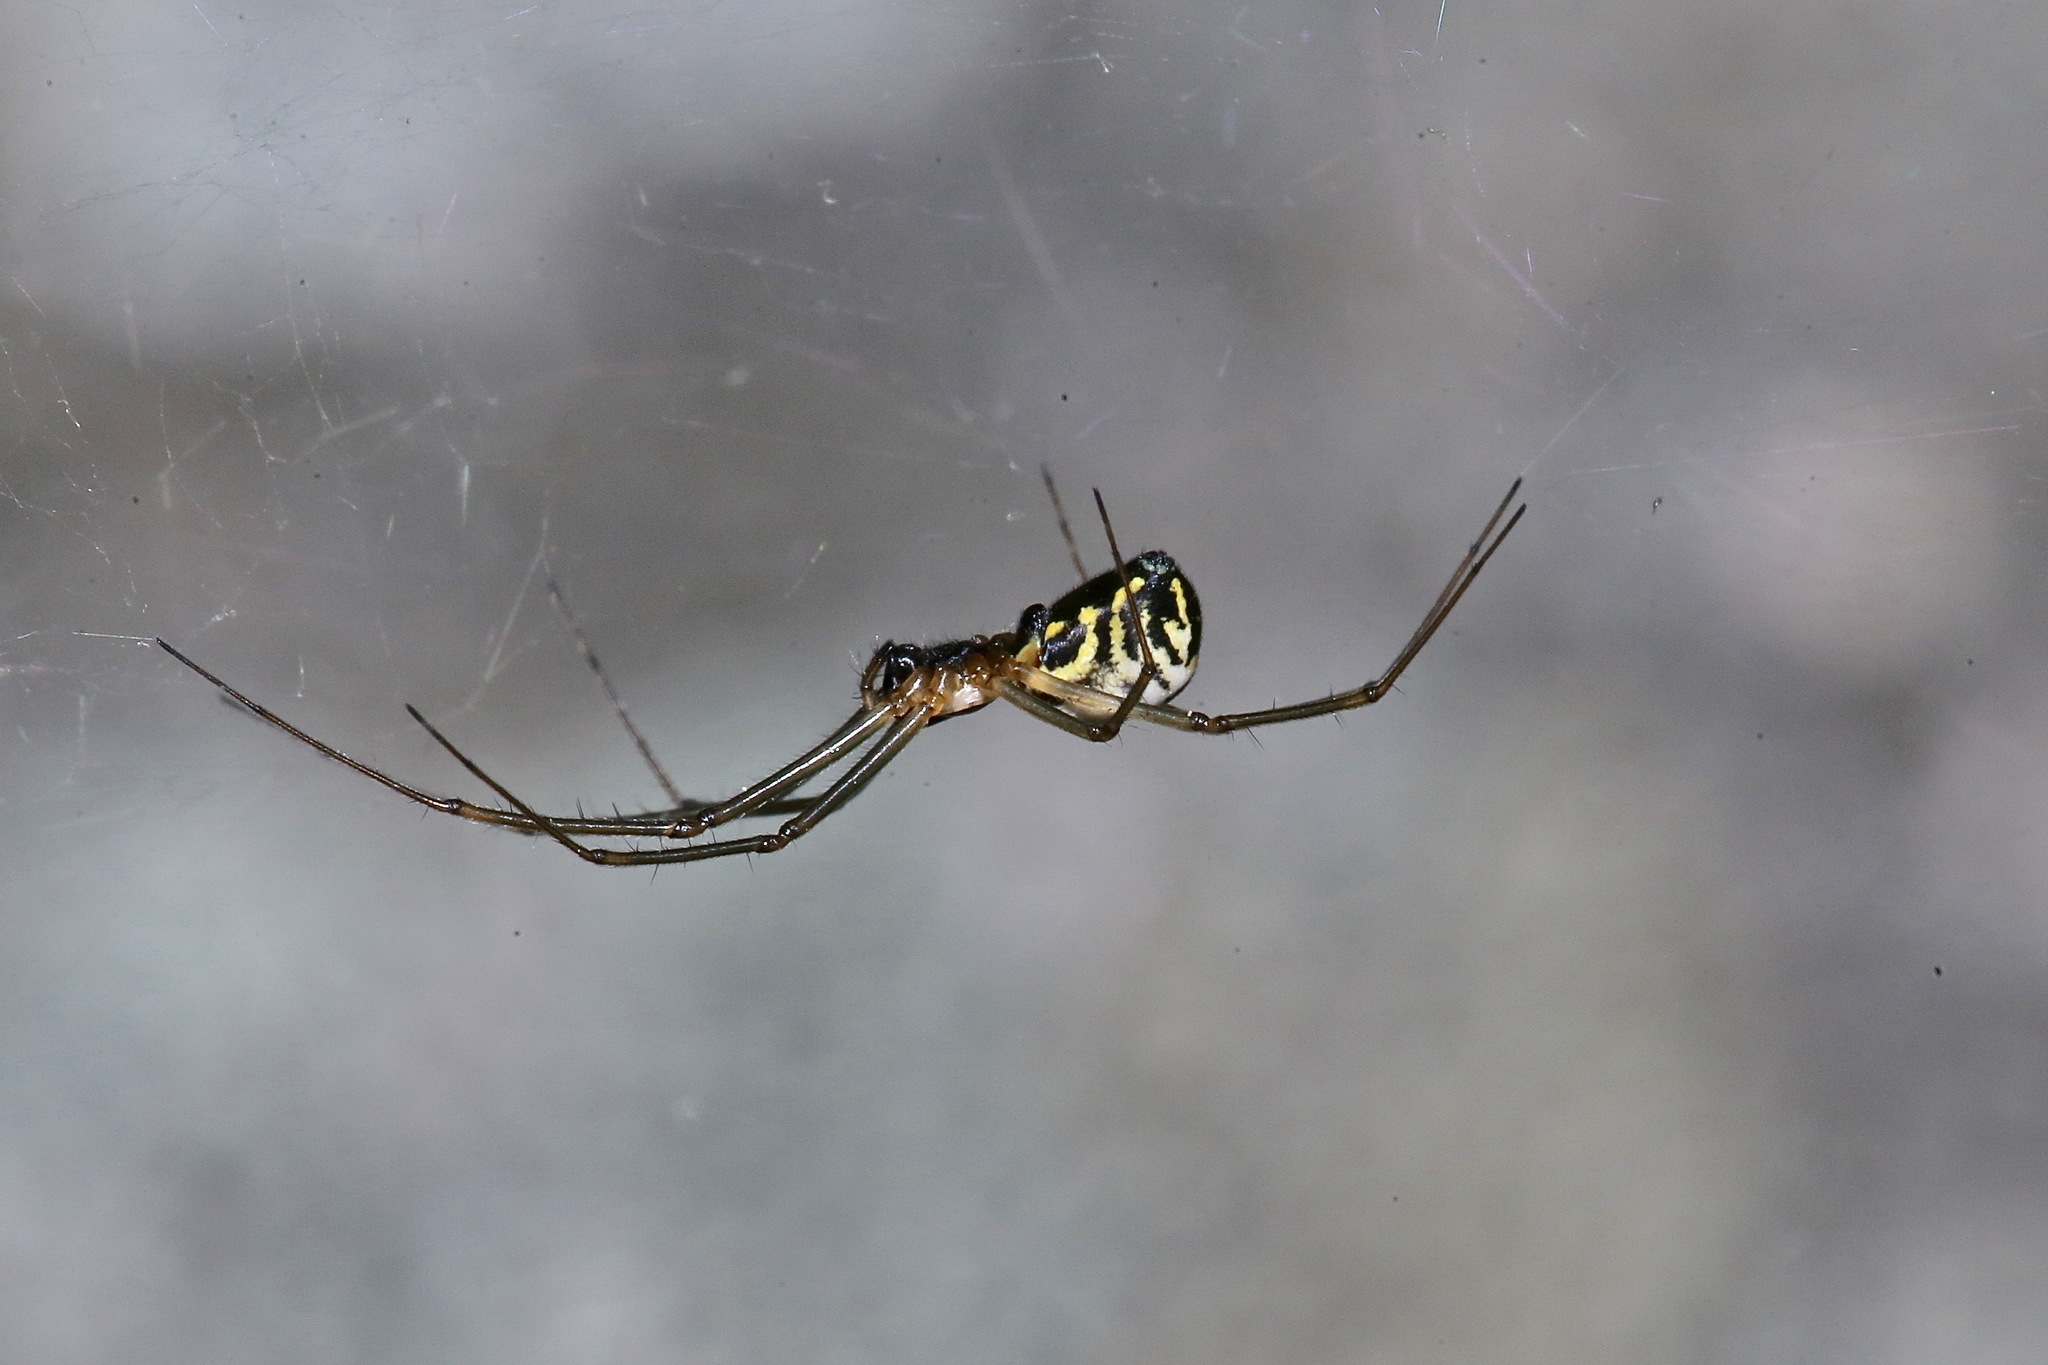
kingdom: Animalia
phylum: Arthropoda
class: Arachnida
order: Araneae
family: Linyphiidae
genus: Neriene
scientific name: Neriene radiata
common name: Filmy dome spider
